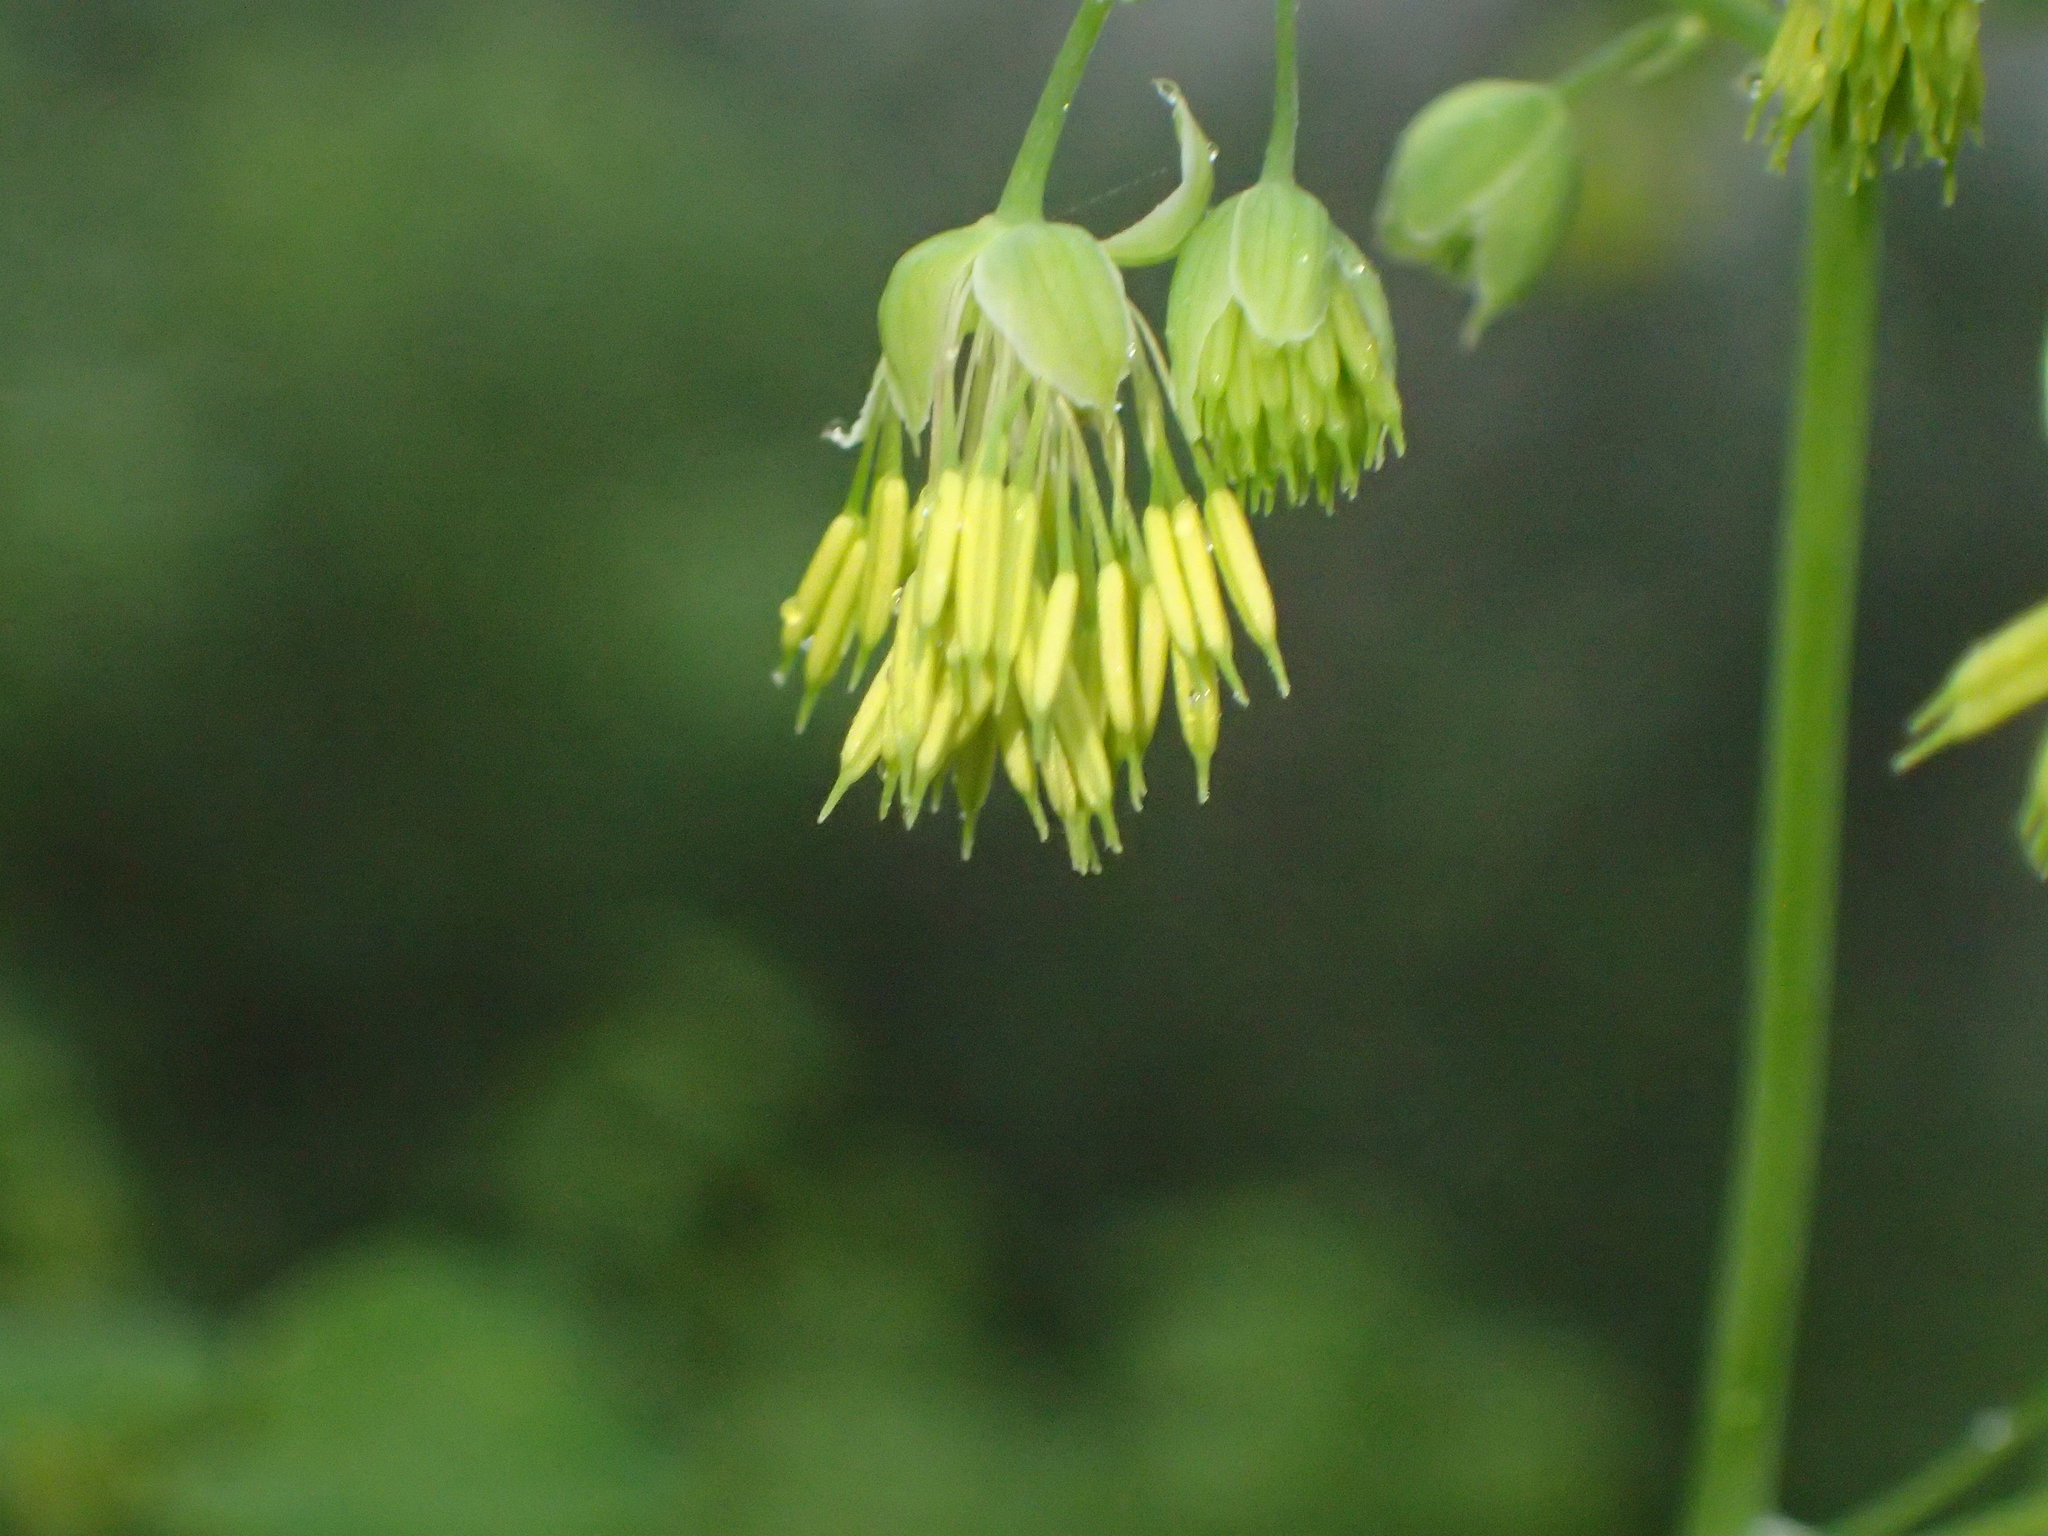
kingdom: Plantae
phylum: Tracheophyta
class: Magnoliopsida
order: Ranunculales
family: Ranunculaceae
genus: Thalictrum
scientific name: Thalictrum fendleri
